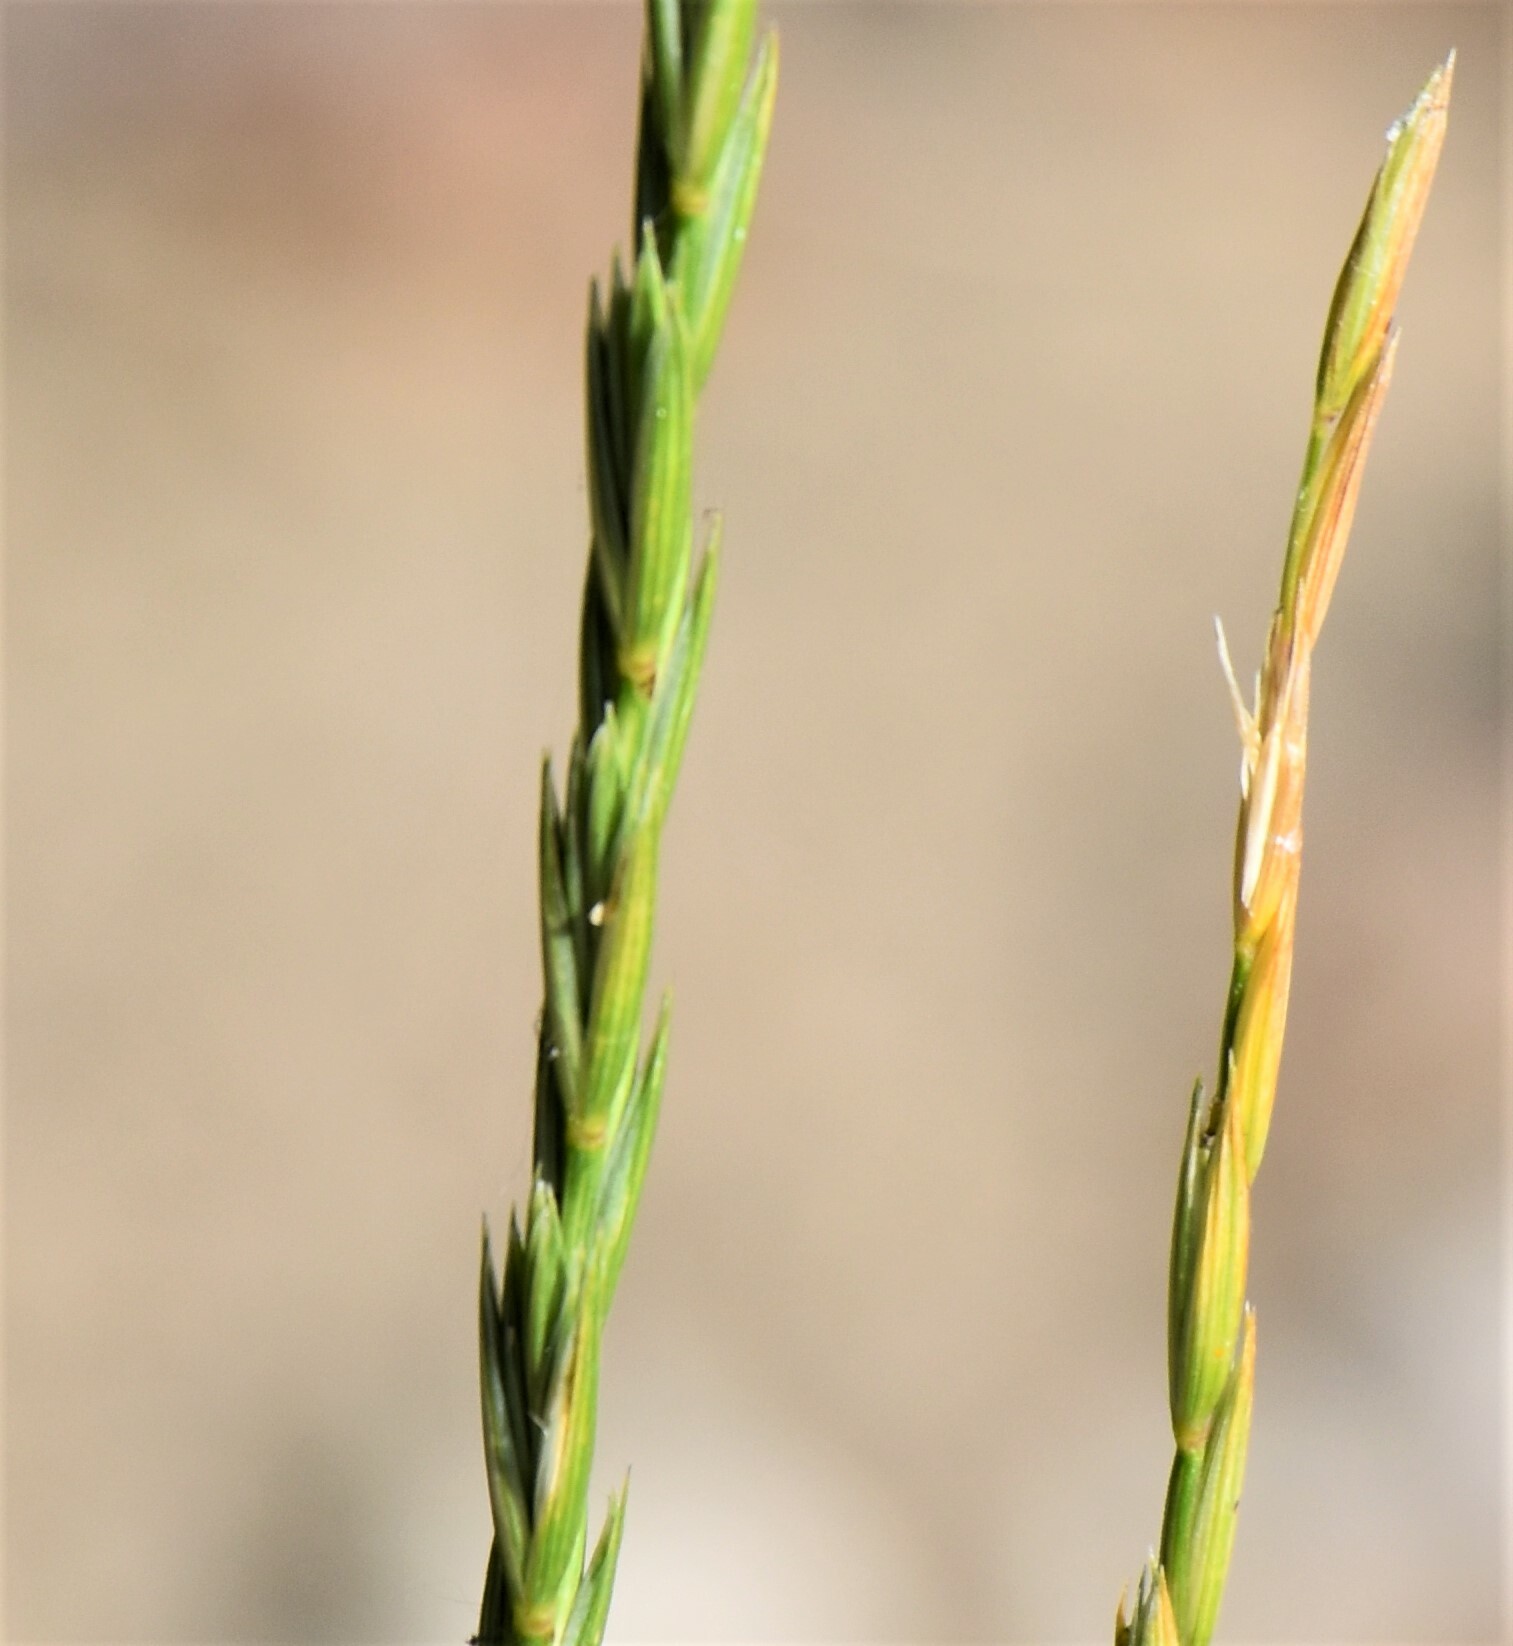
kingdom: Plantae
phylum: Tracheophyta
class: Liliopsida
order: Poales
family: Poaceae
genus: Elymus
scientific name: Elymus violaceus
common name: Arctic wheatgrass
